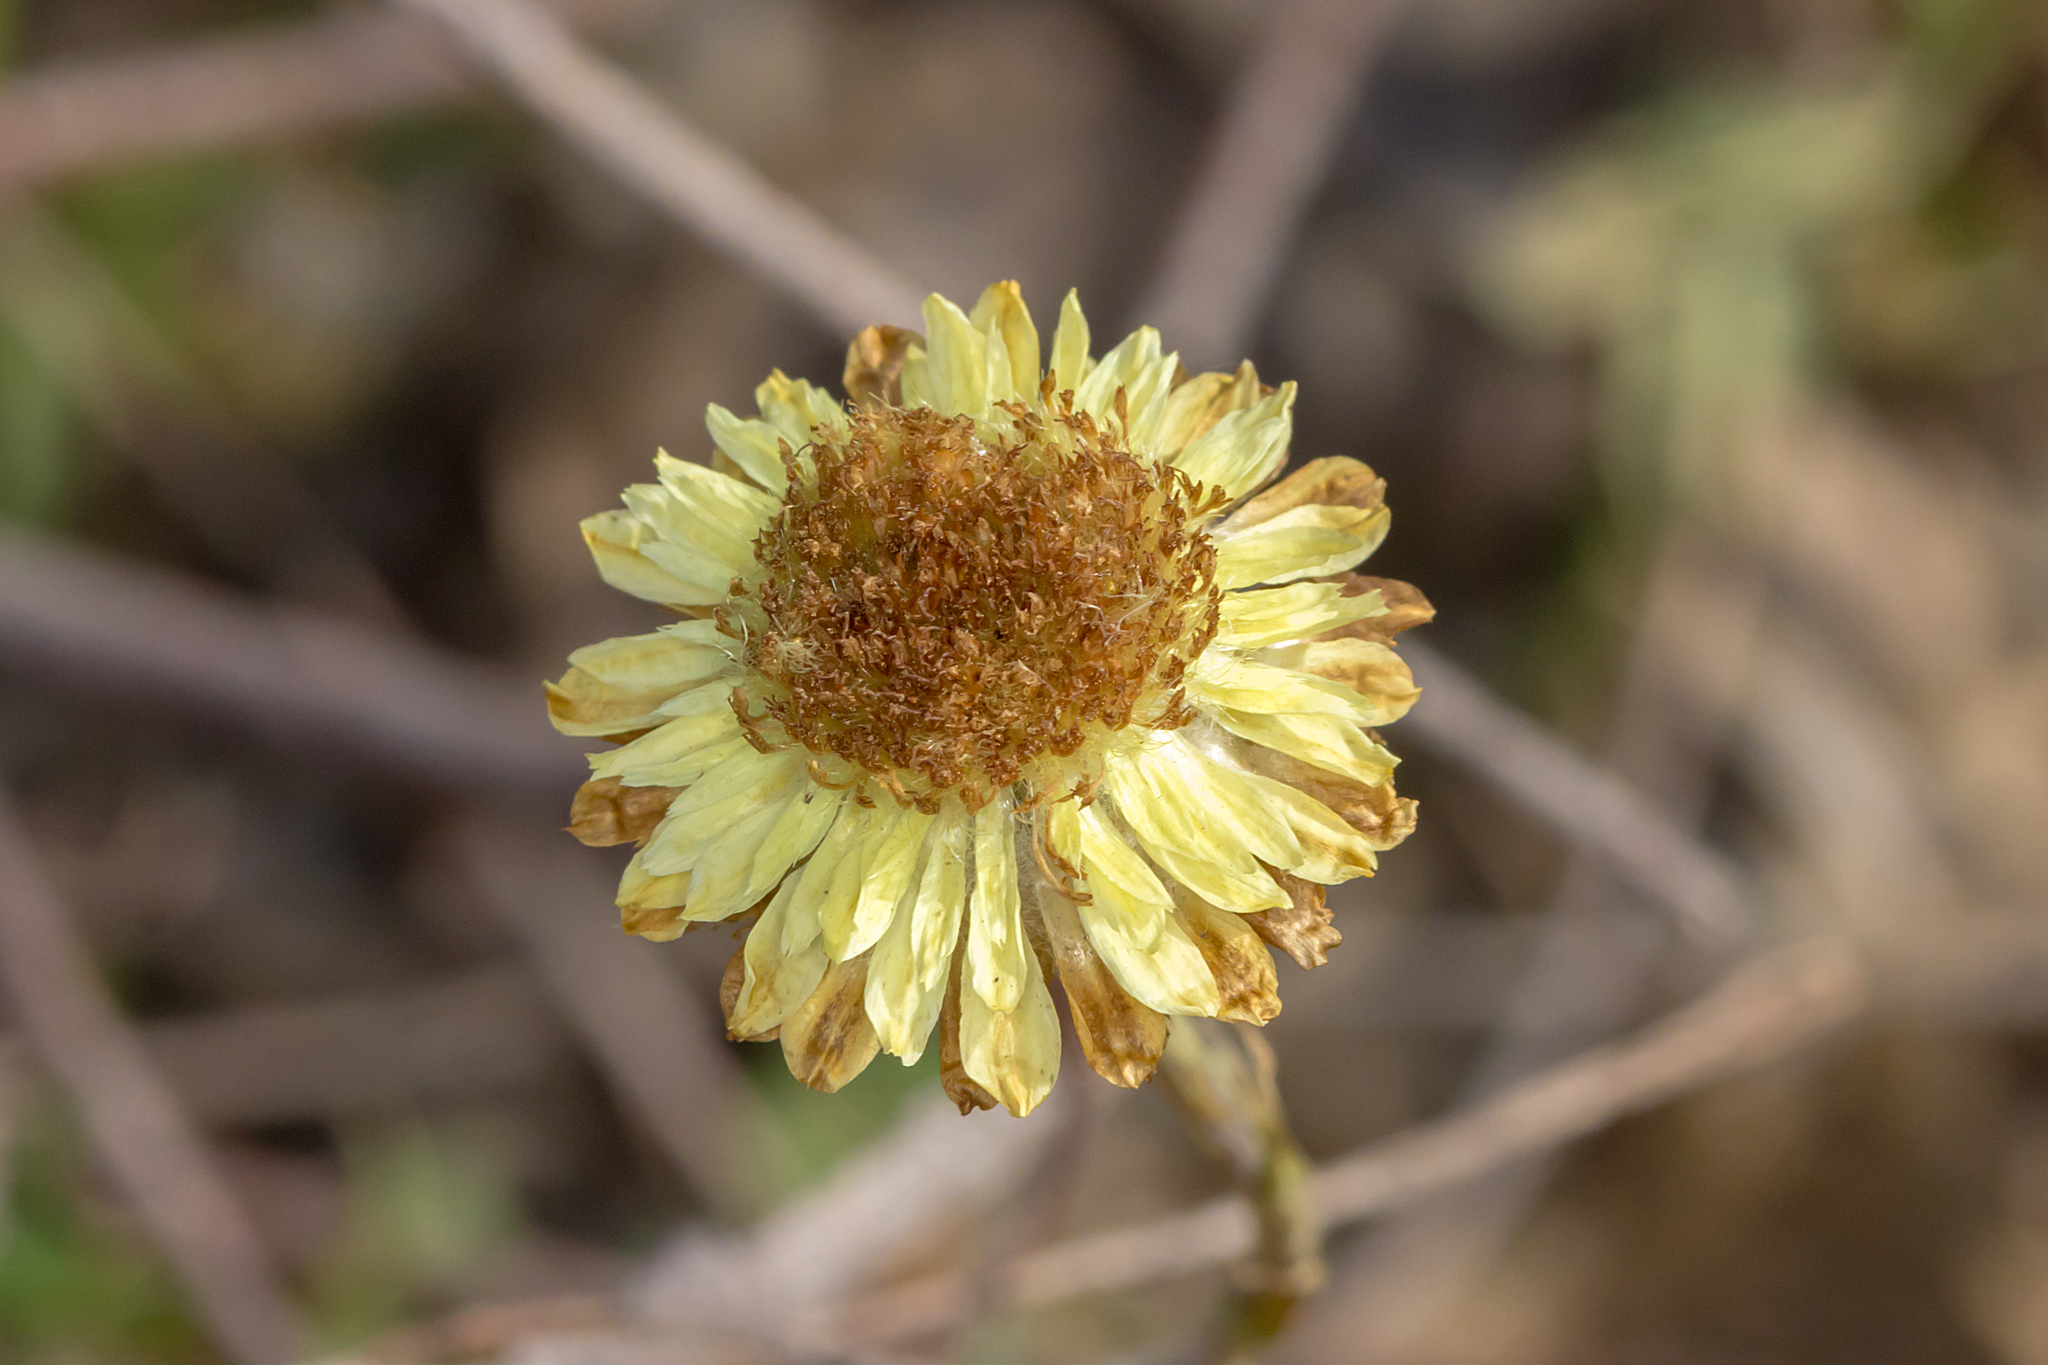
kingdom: Plantae
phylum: Tracheophyta
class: Magnoliopsida
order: Asterales
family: Asteraceae
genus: Coronidium
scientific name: Coronidium scorpioides
